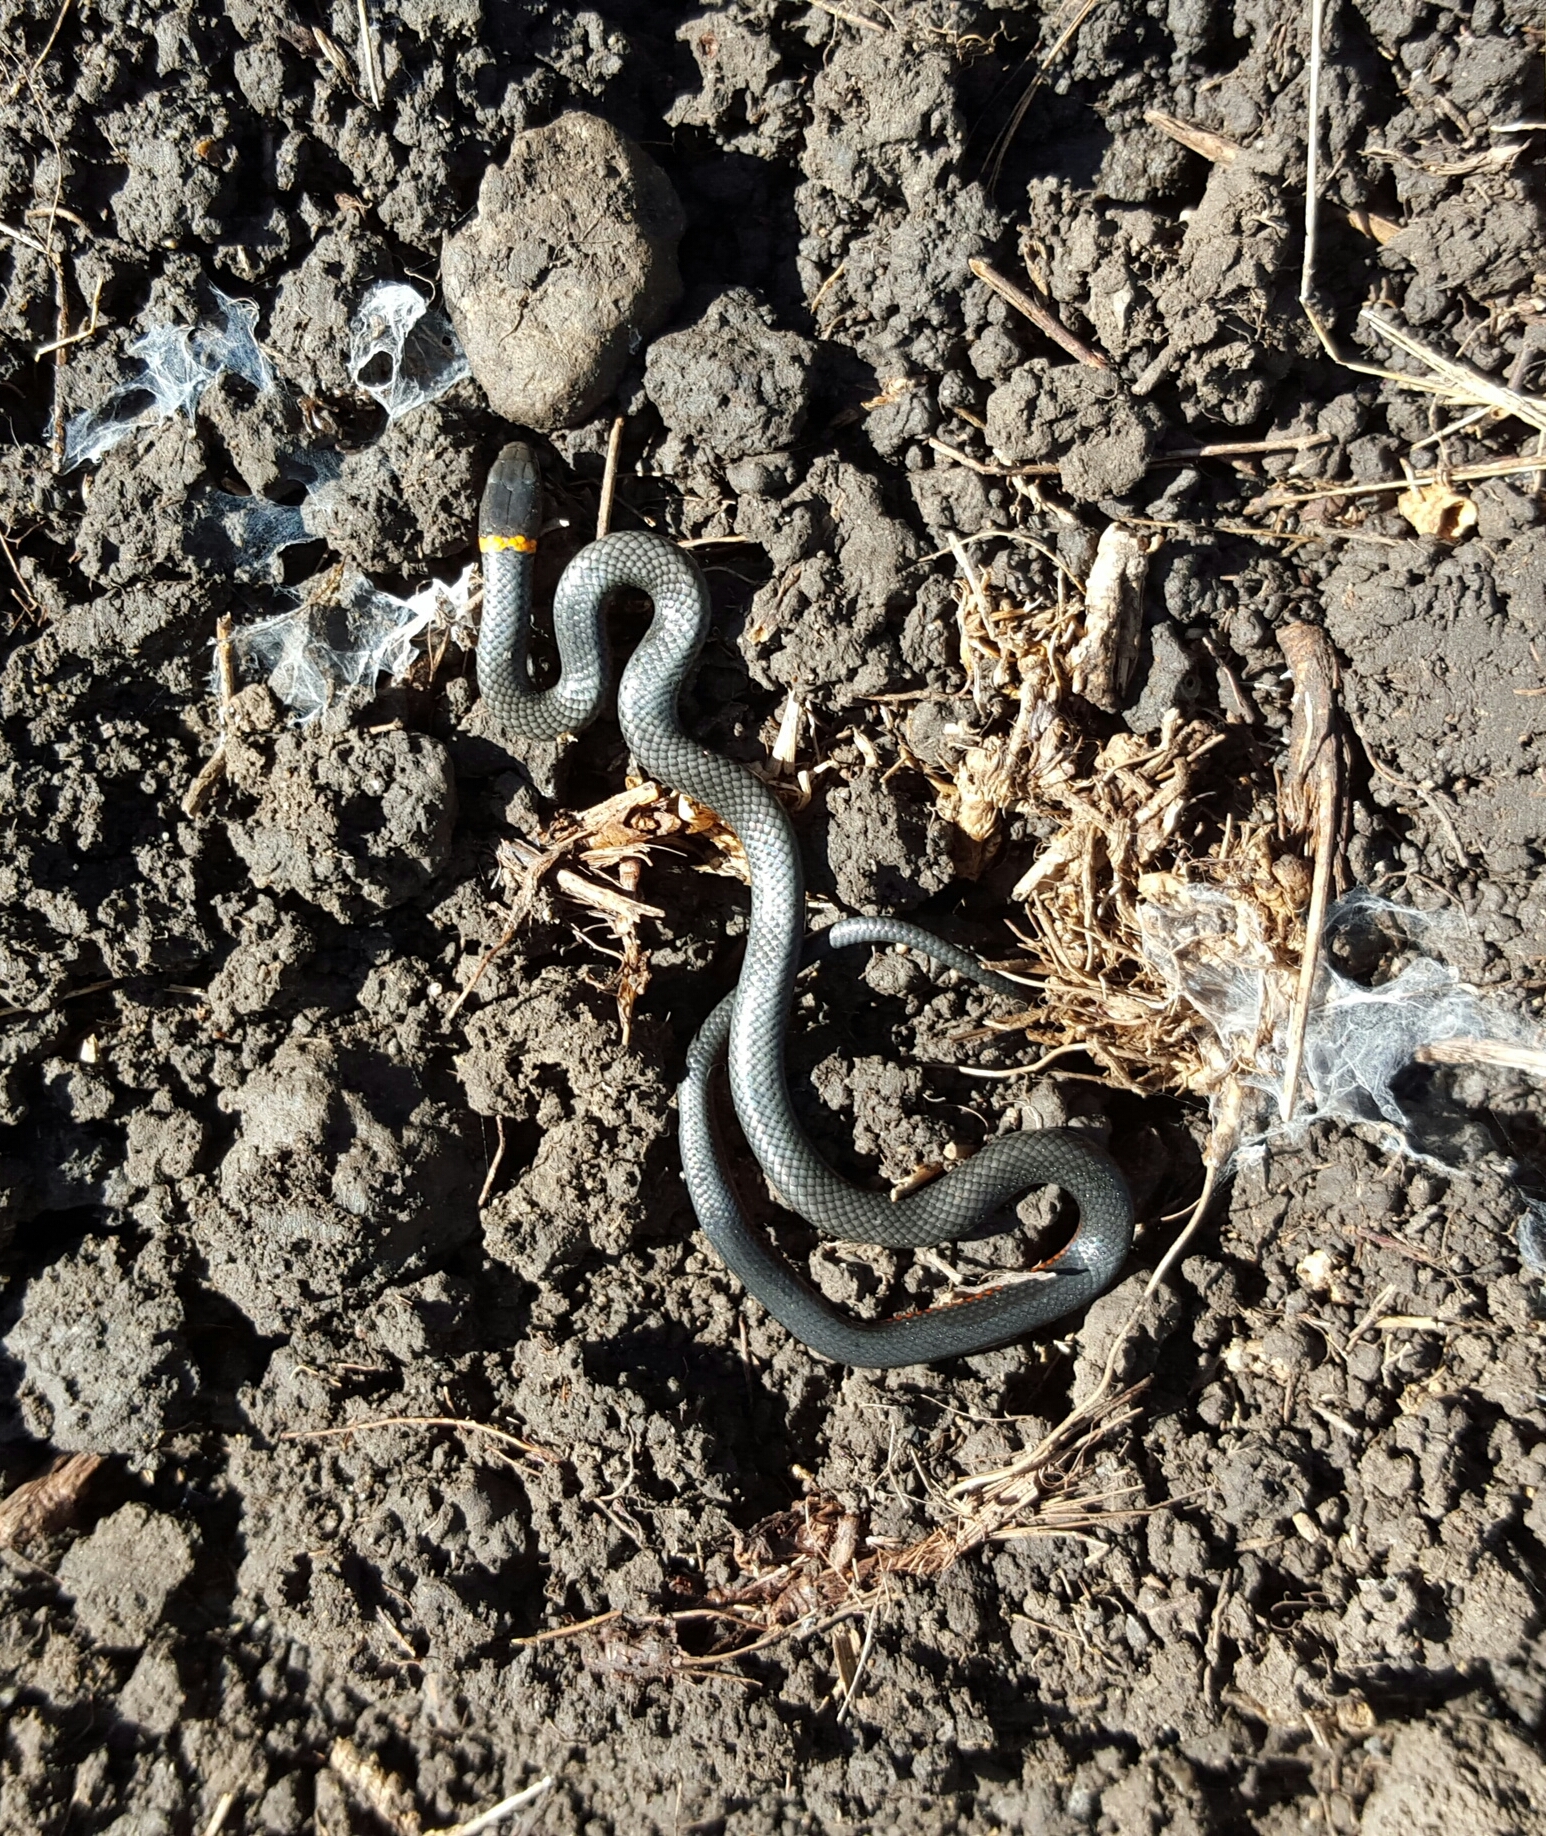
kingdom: Animalia
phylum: Chordata
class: Squamata
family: Colubridae
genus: Diadophis
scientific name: Diadophis punctatus
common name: Ringneck snake
